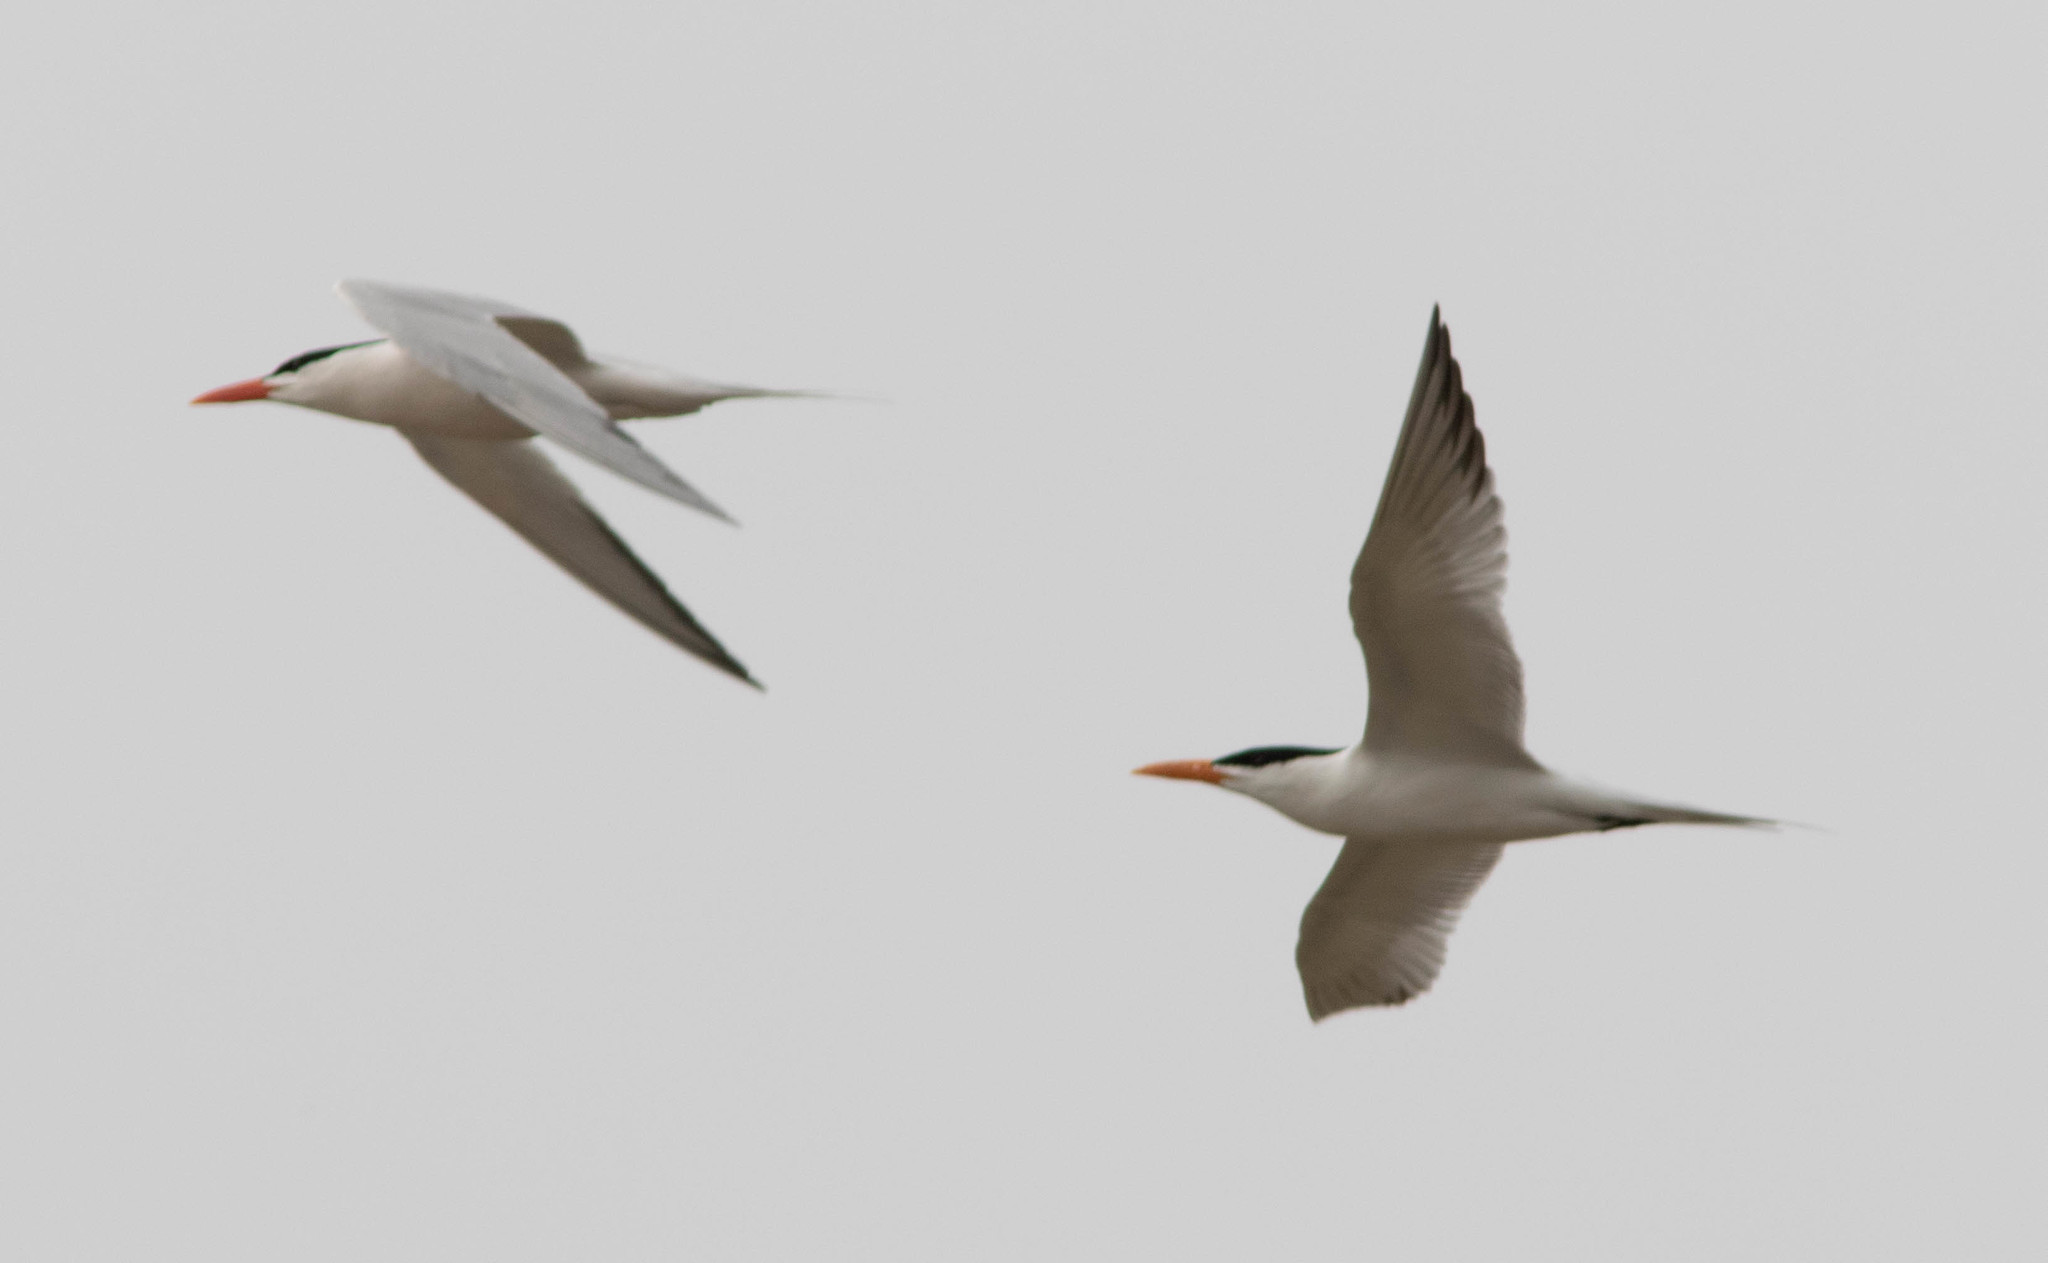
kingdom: Animalia
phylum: Chordata
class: Aves
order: Charadriiformes
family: Laridae
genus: Thalasseus
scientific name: Thalasseus maximus
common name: Royal tern
